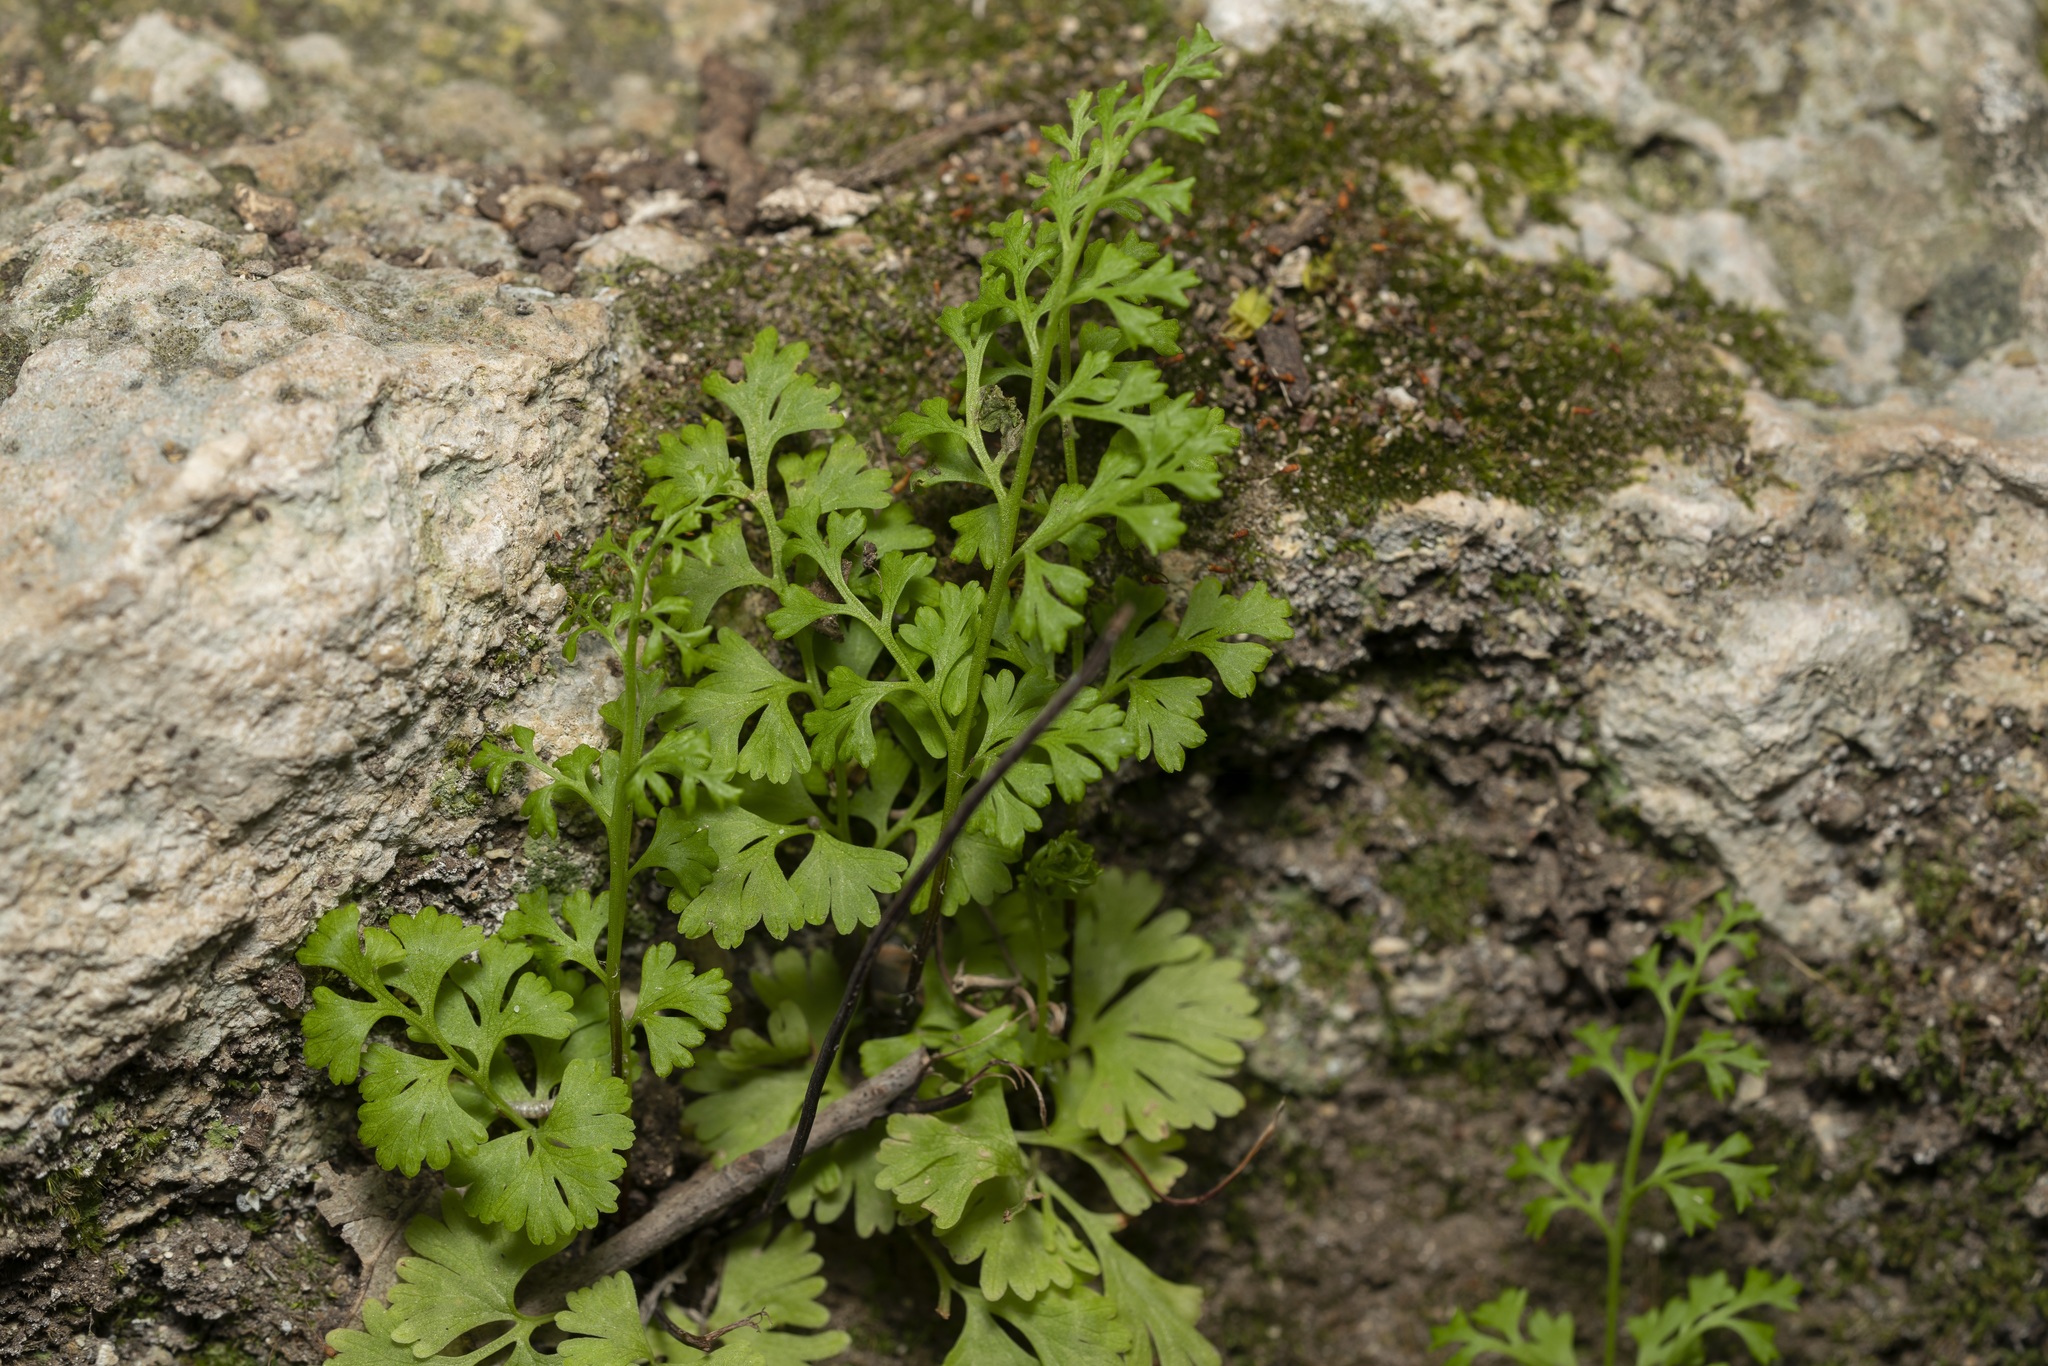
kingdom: Plantae
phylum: Tracheophyta
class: Polypodiopsida
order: Polypodiales
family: Pteridaceae
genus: Anogramma
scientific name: Anogramma leptophylla
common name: Jersey fern
